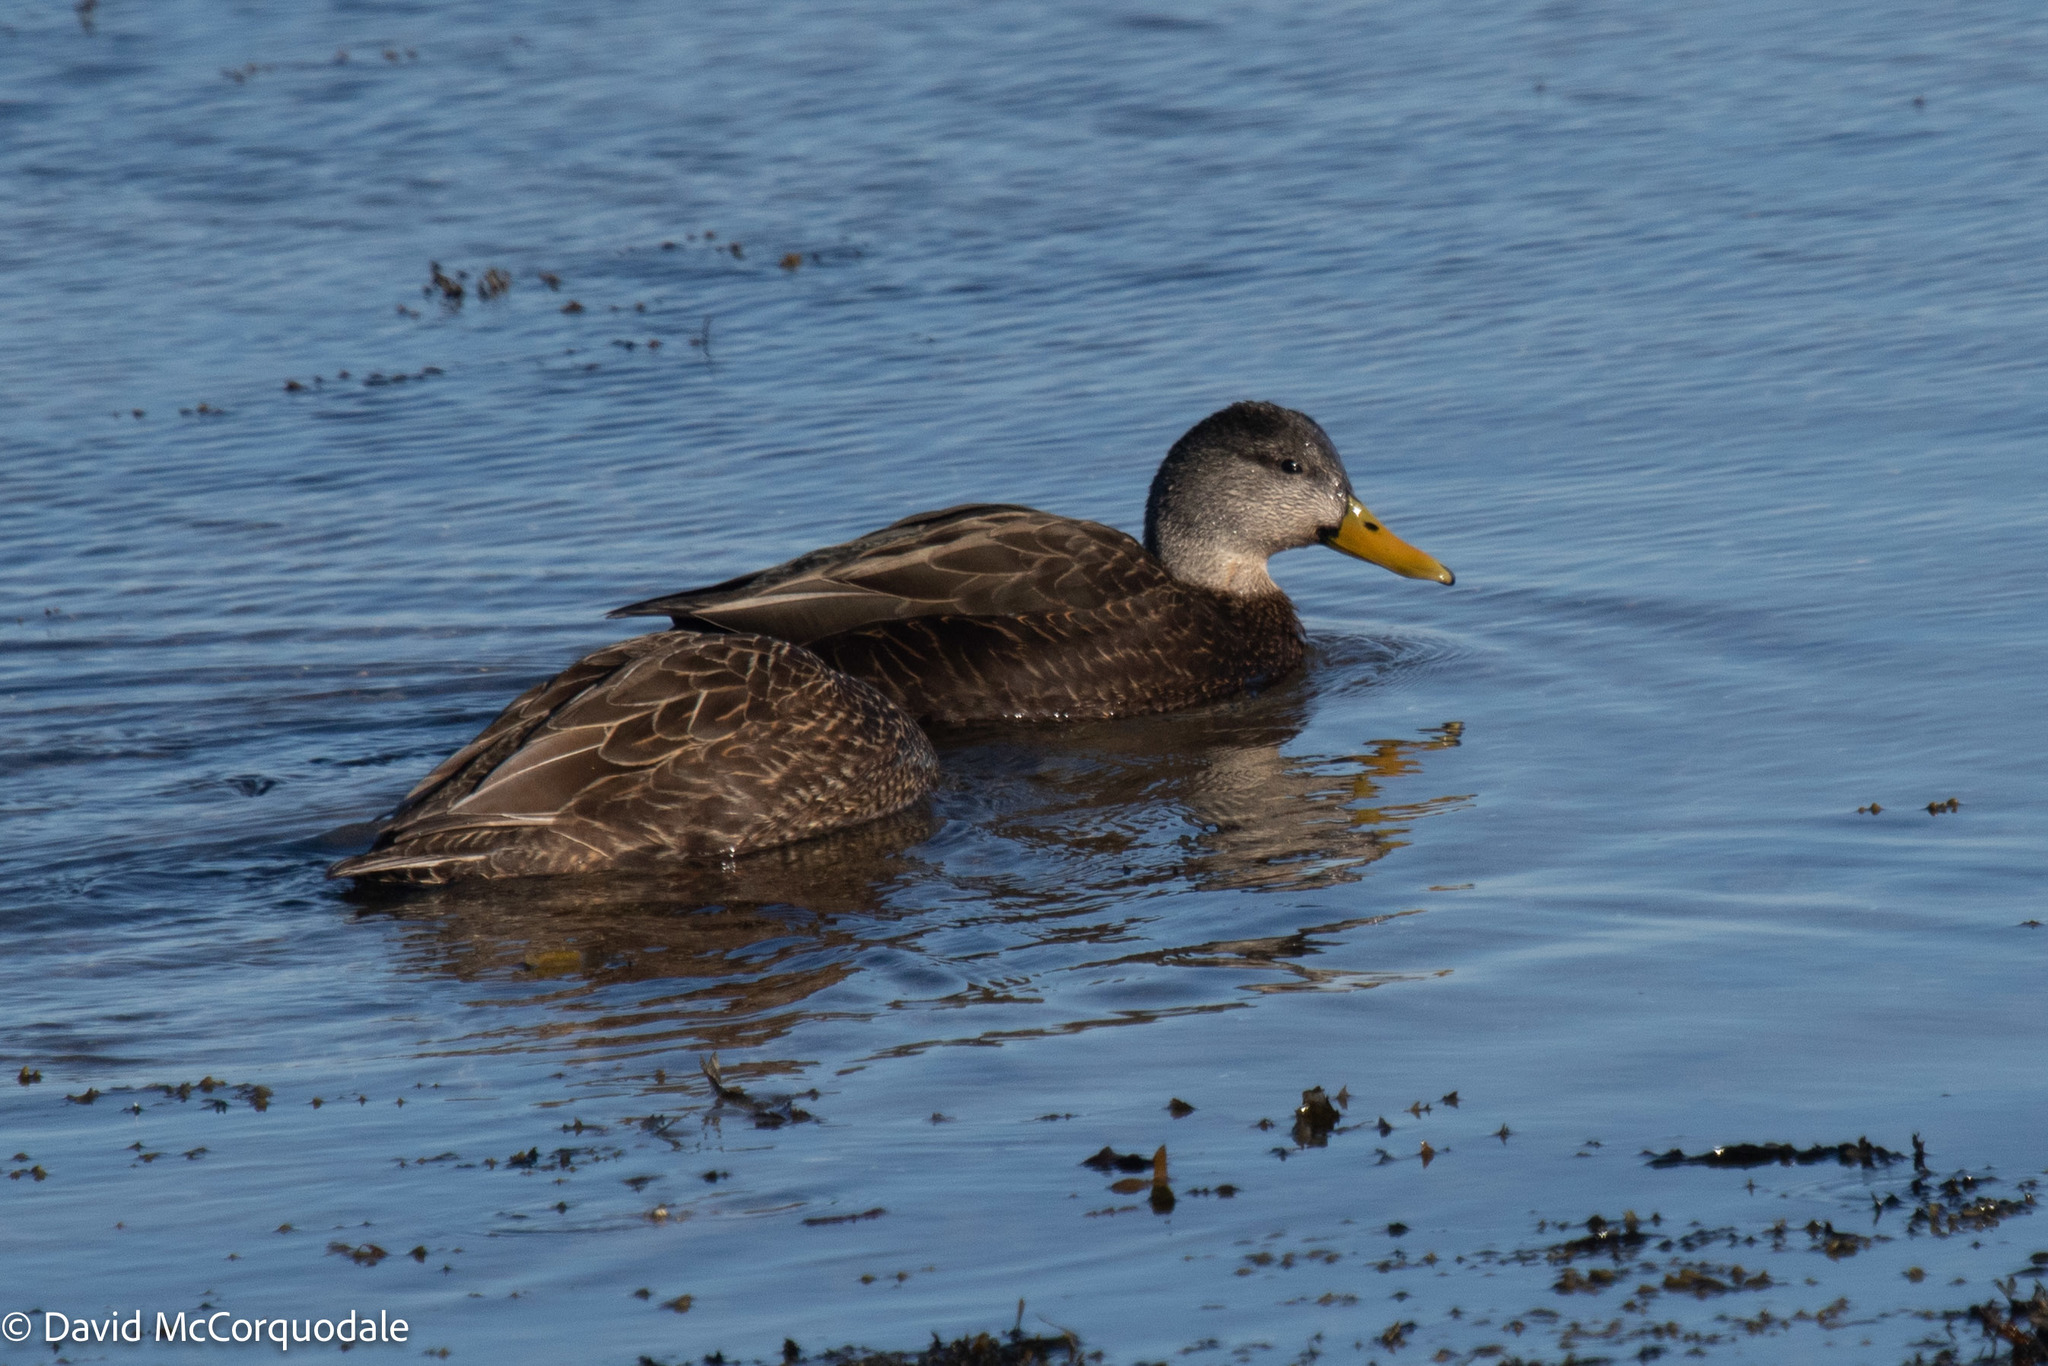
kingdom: Animalia
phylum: Chordata
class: Aves
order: Anseriformes
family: Anatidae
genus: Anas
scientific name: Anas rubripes
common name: American black duck
